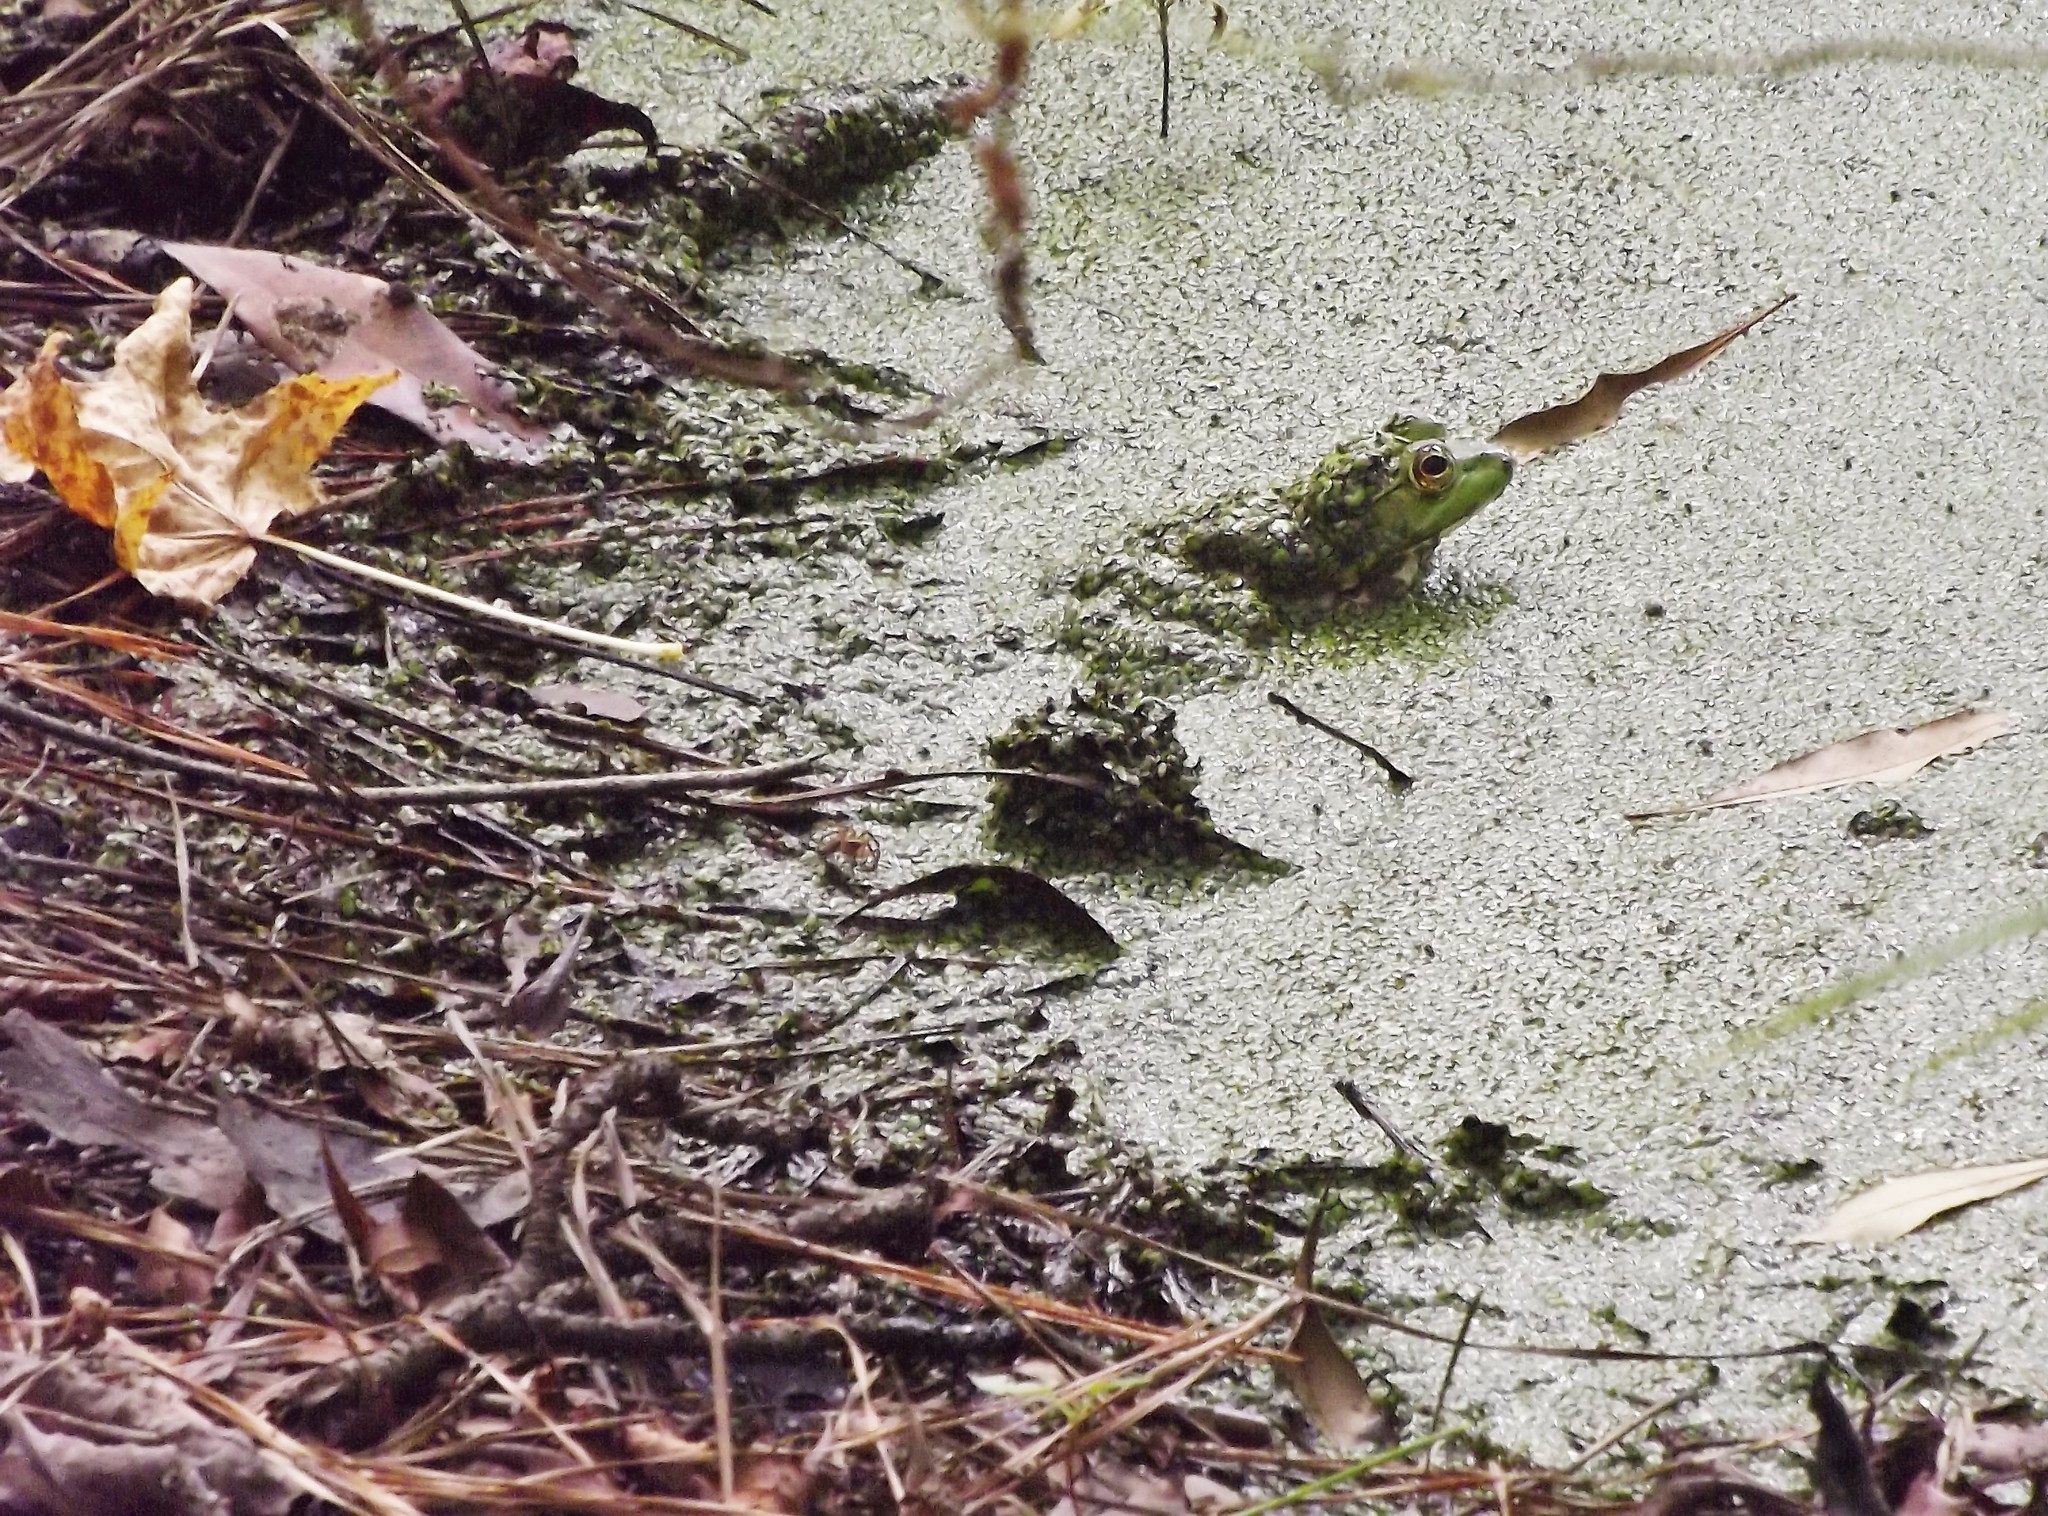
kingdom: Animalia
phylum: Chordata
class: Amphibia
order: Anura
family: Ranidae
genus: Lithobates
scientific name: Lithobates catesbeianus
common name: American bullfrog
